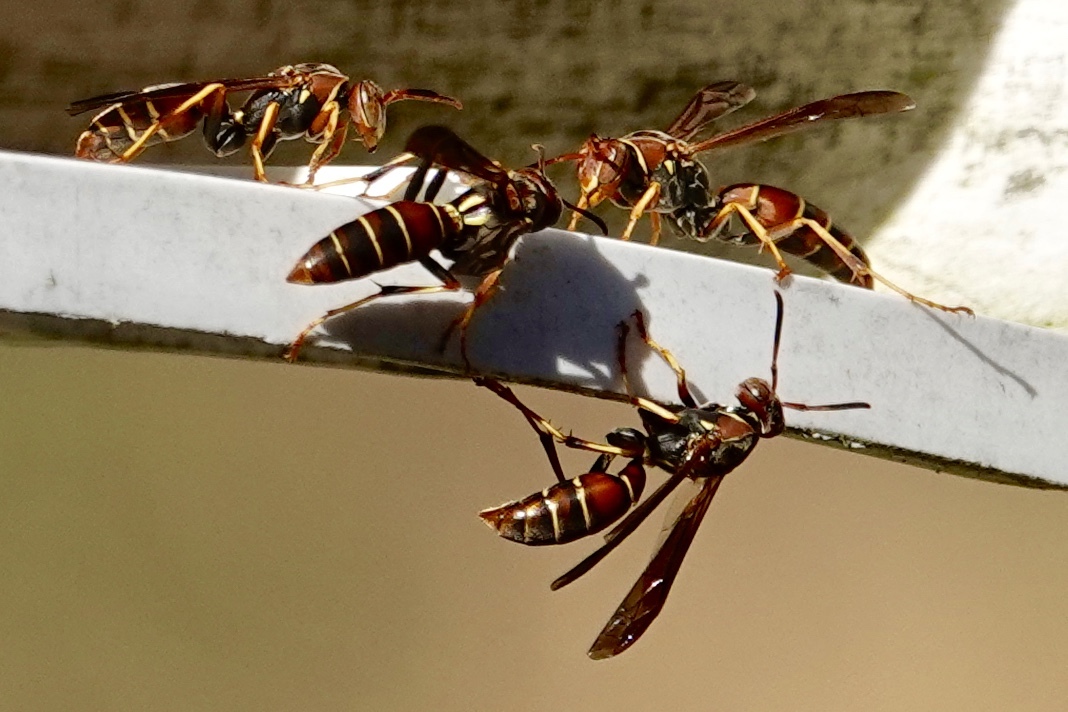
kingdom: Animalia
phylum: Arthropoda
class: Insecta
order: Hymenoptera
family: Eumenidae
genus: Polistes
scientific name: Polistes dorsalis
